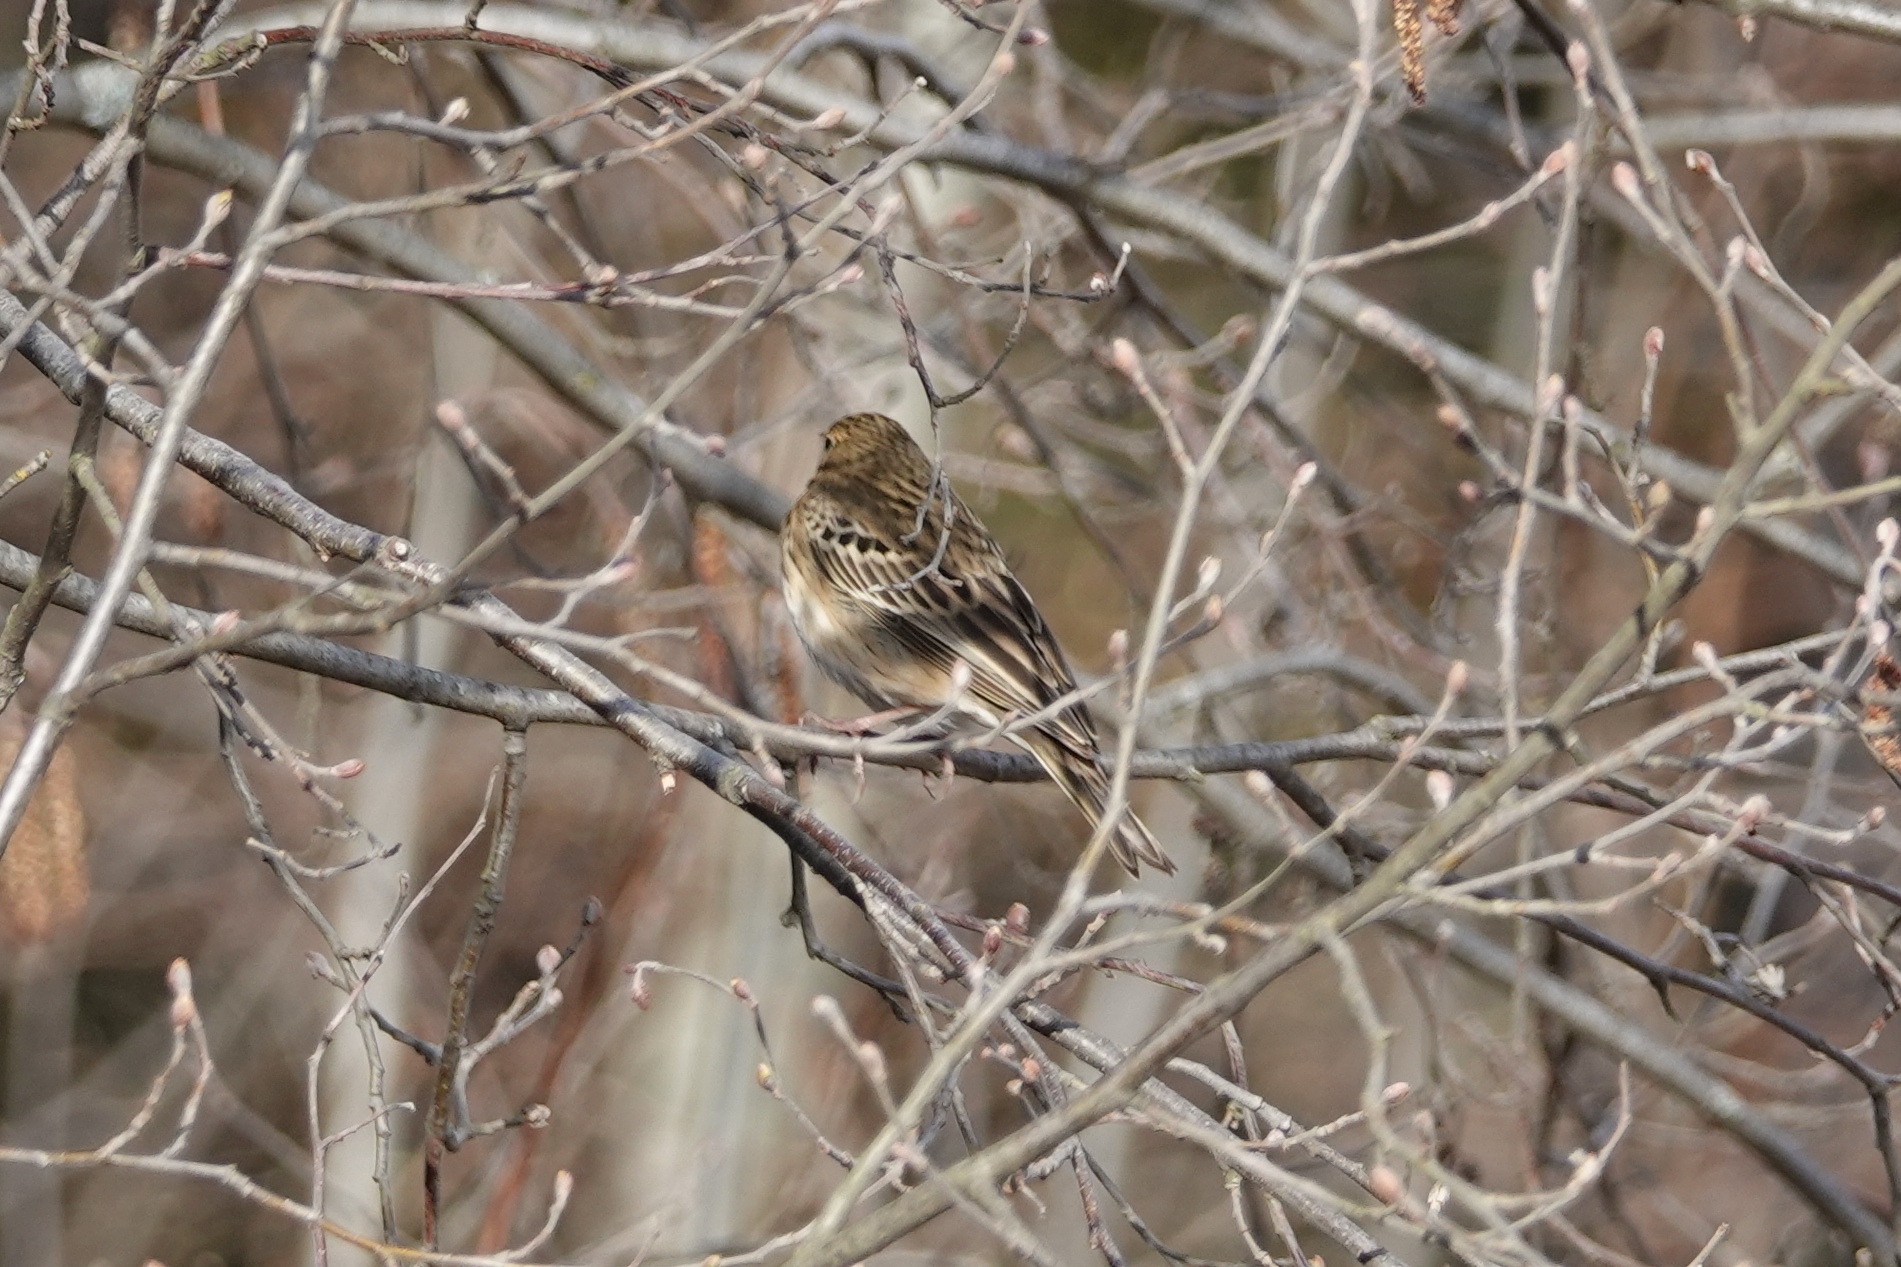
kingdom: Animalia
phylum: Chordata
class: Aves
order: Passeriformes
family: Motacillidae
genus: Anthus
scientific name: Anthus trivialis
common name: Tree pipit
